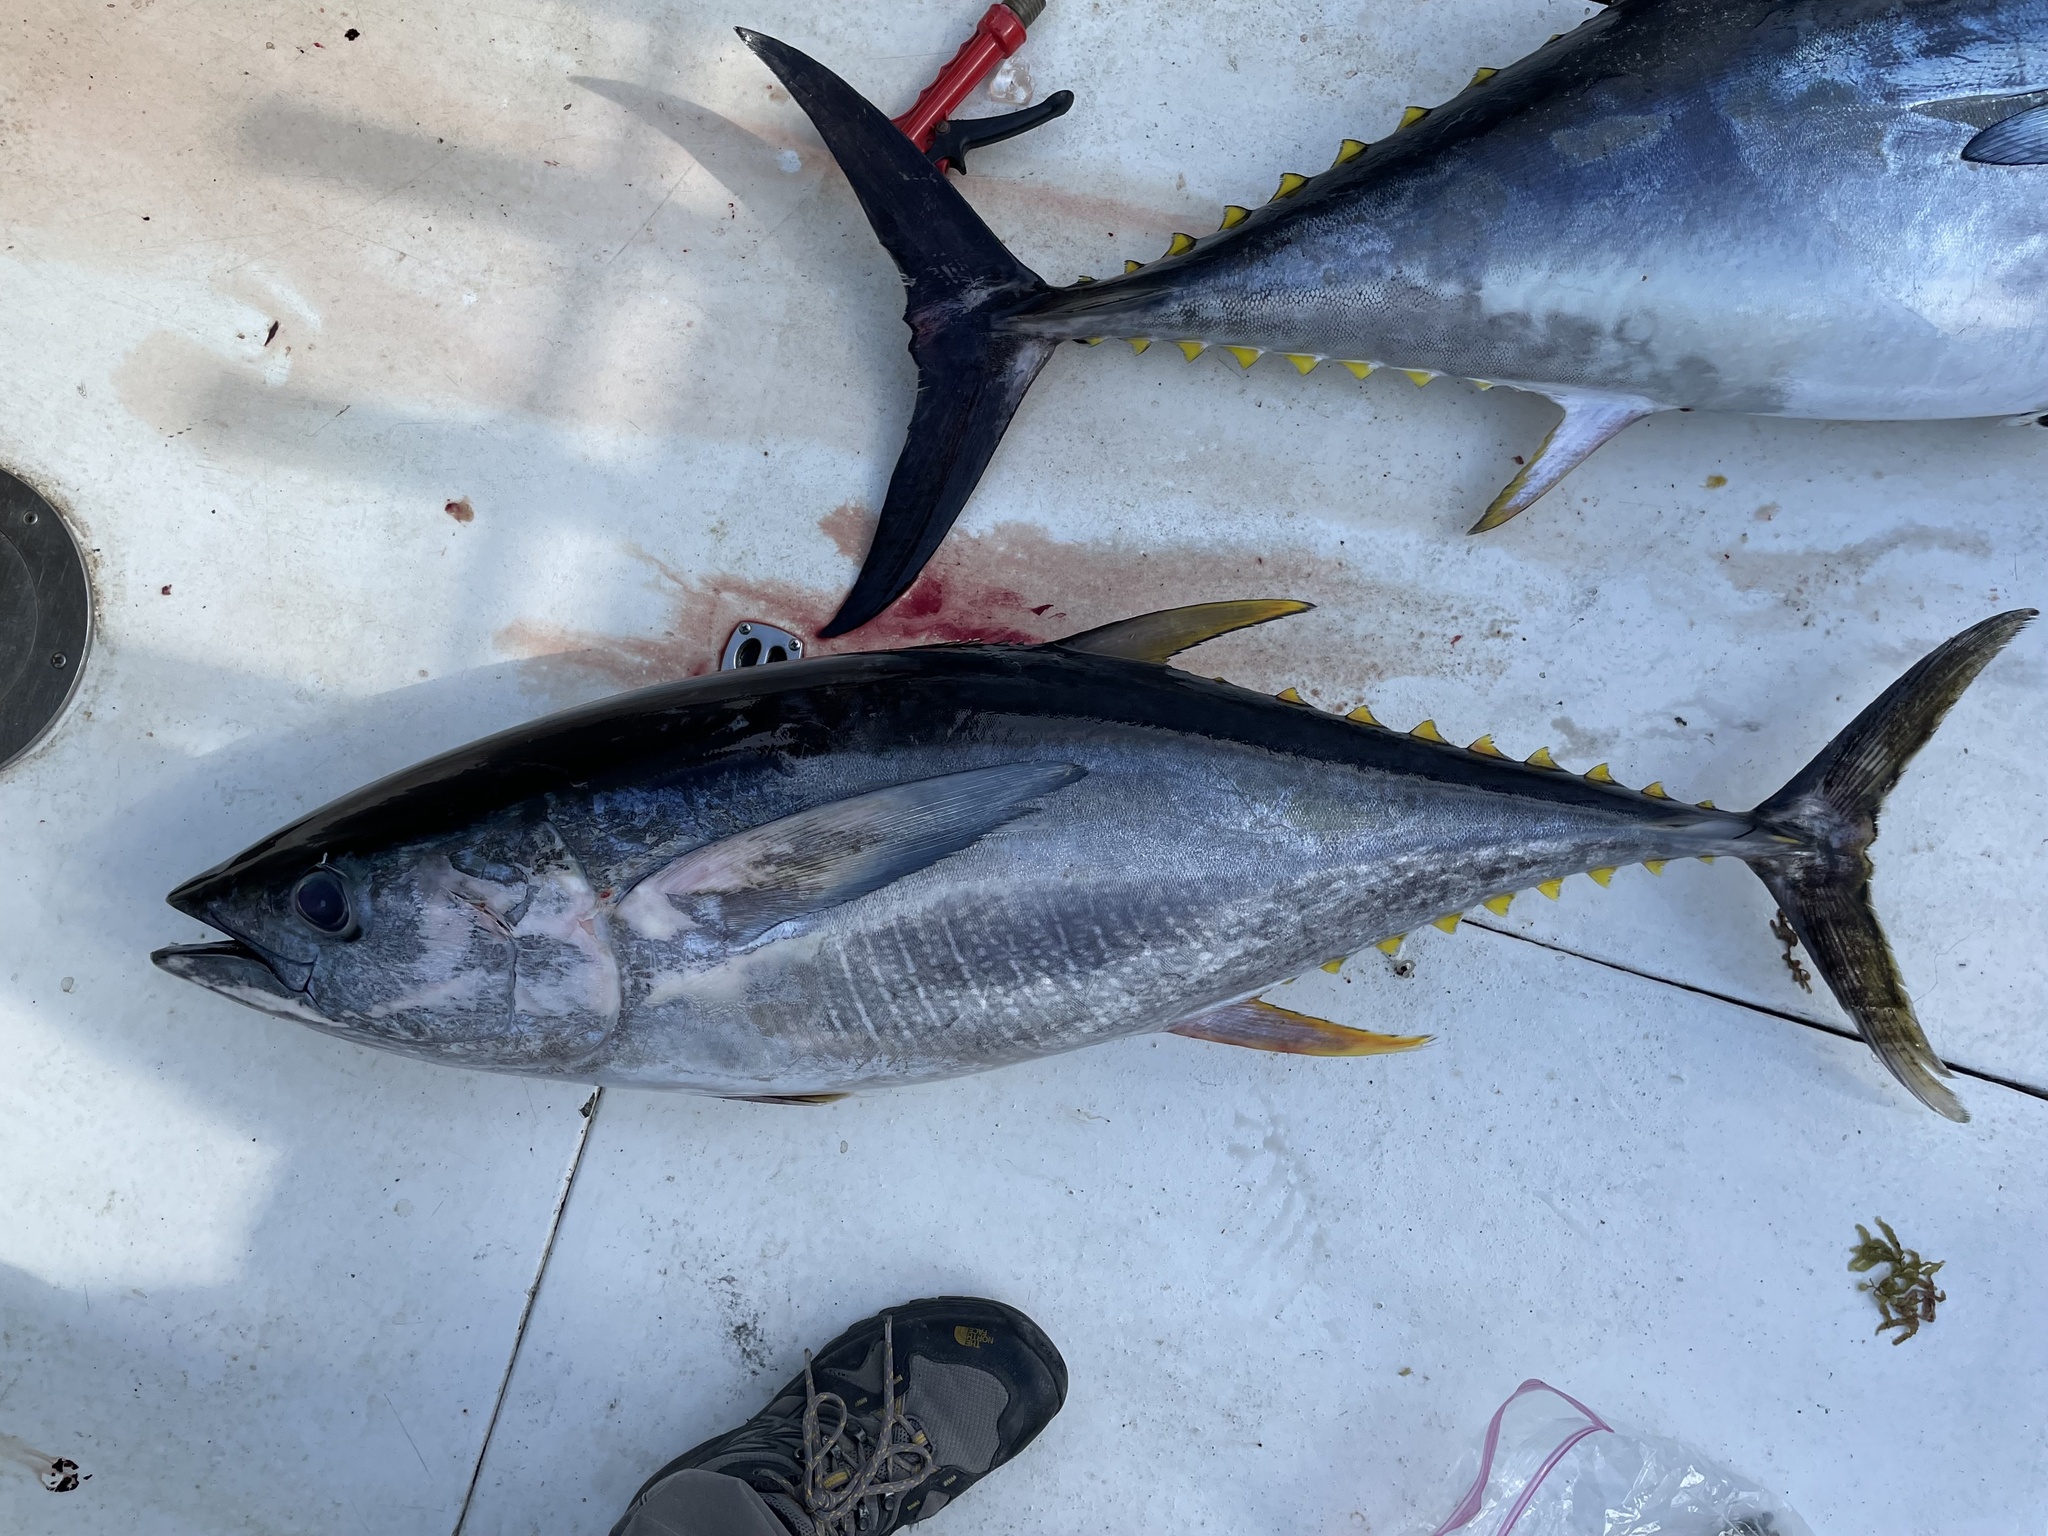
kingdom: Animalia
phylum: Chordata
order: Perciformes
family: Scombridae
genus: Thunnus
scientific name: Thunnus albacares
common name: Yellowfin tuna
